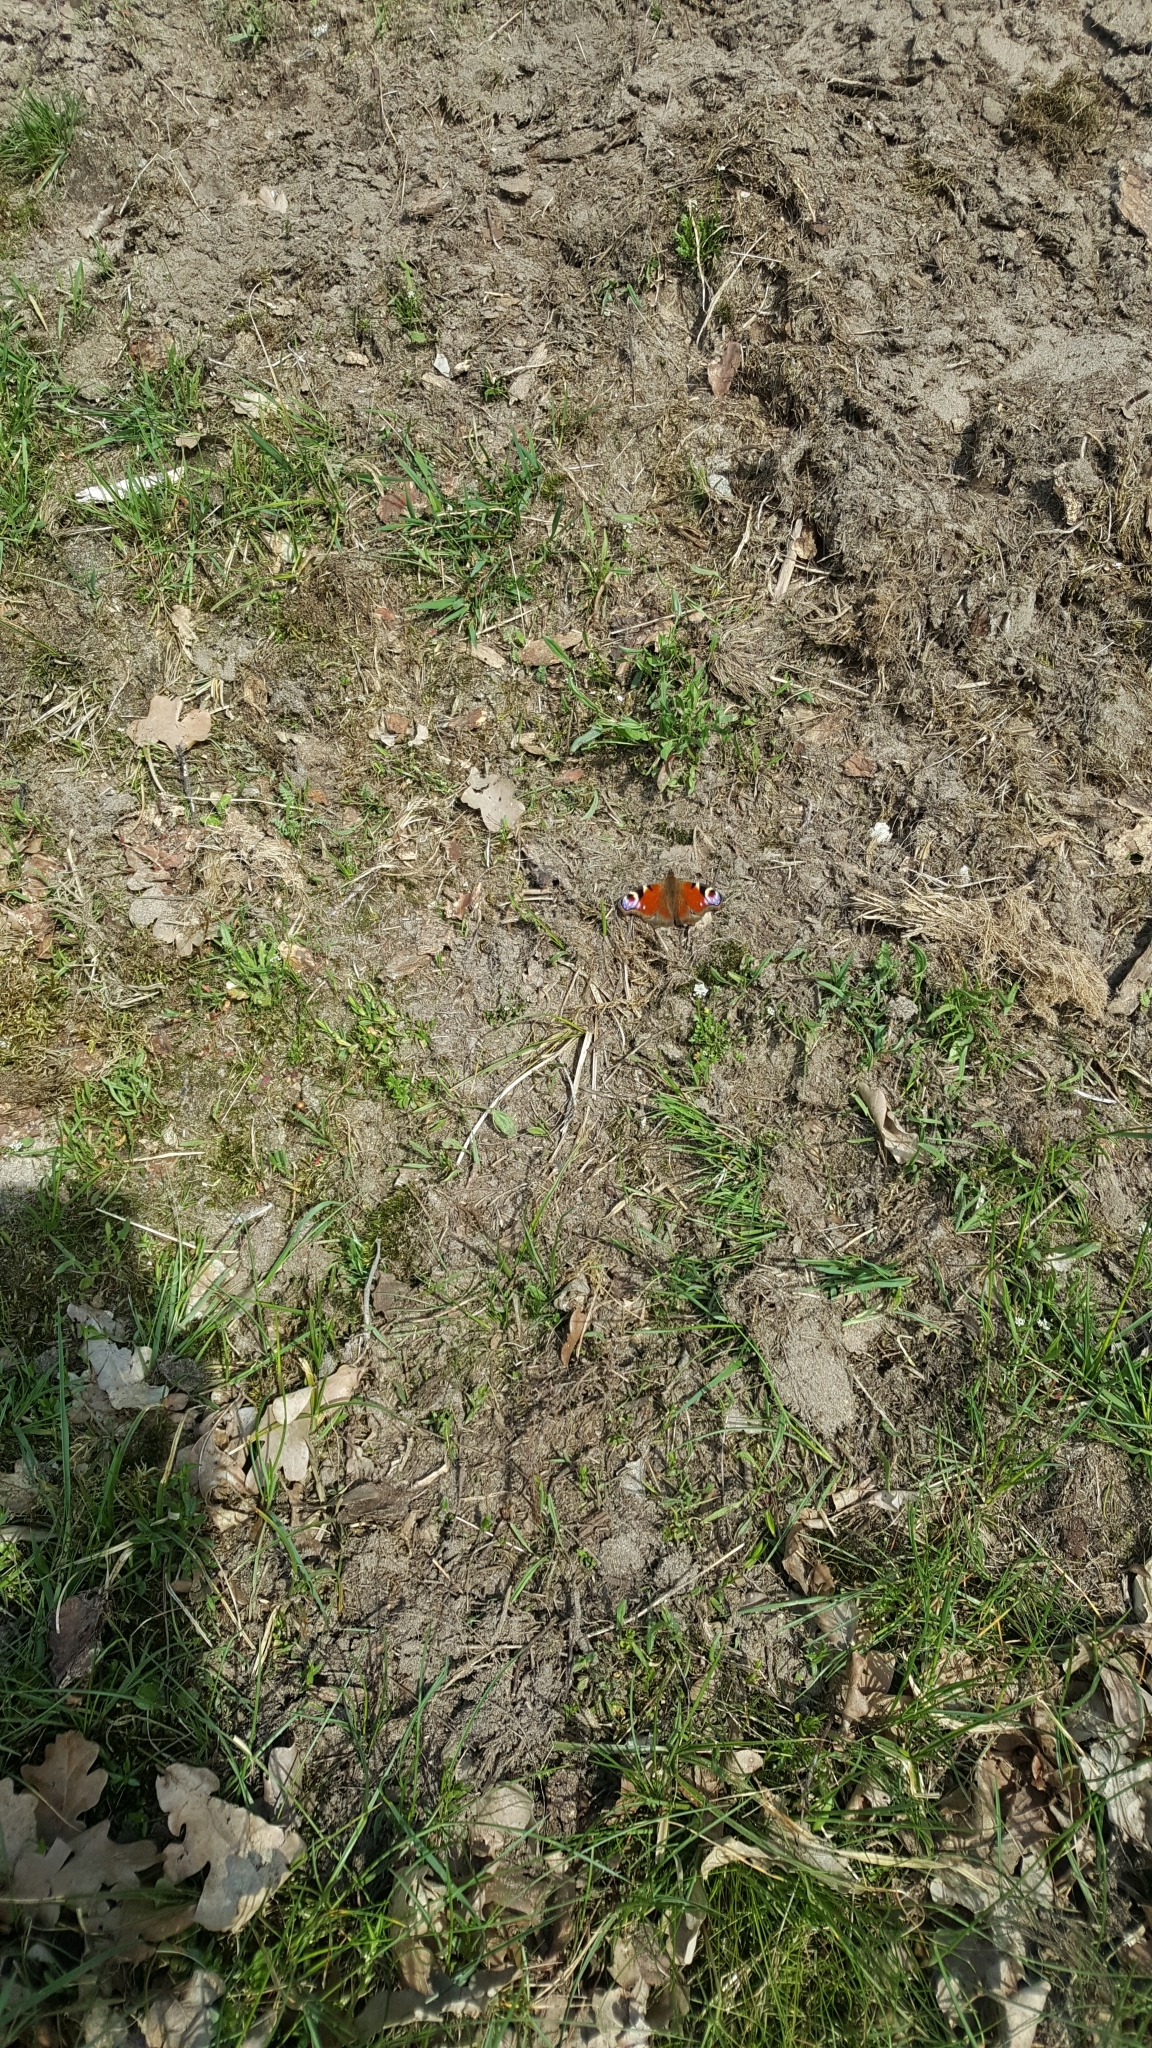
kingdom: Animalia
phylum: Arthropoda
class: Insecta
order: Lepidoptera
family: Nymphalidae
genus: Aglais
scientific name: Aglais io
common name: Peacock
